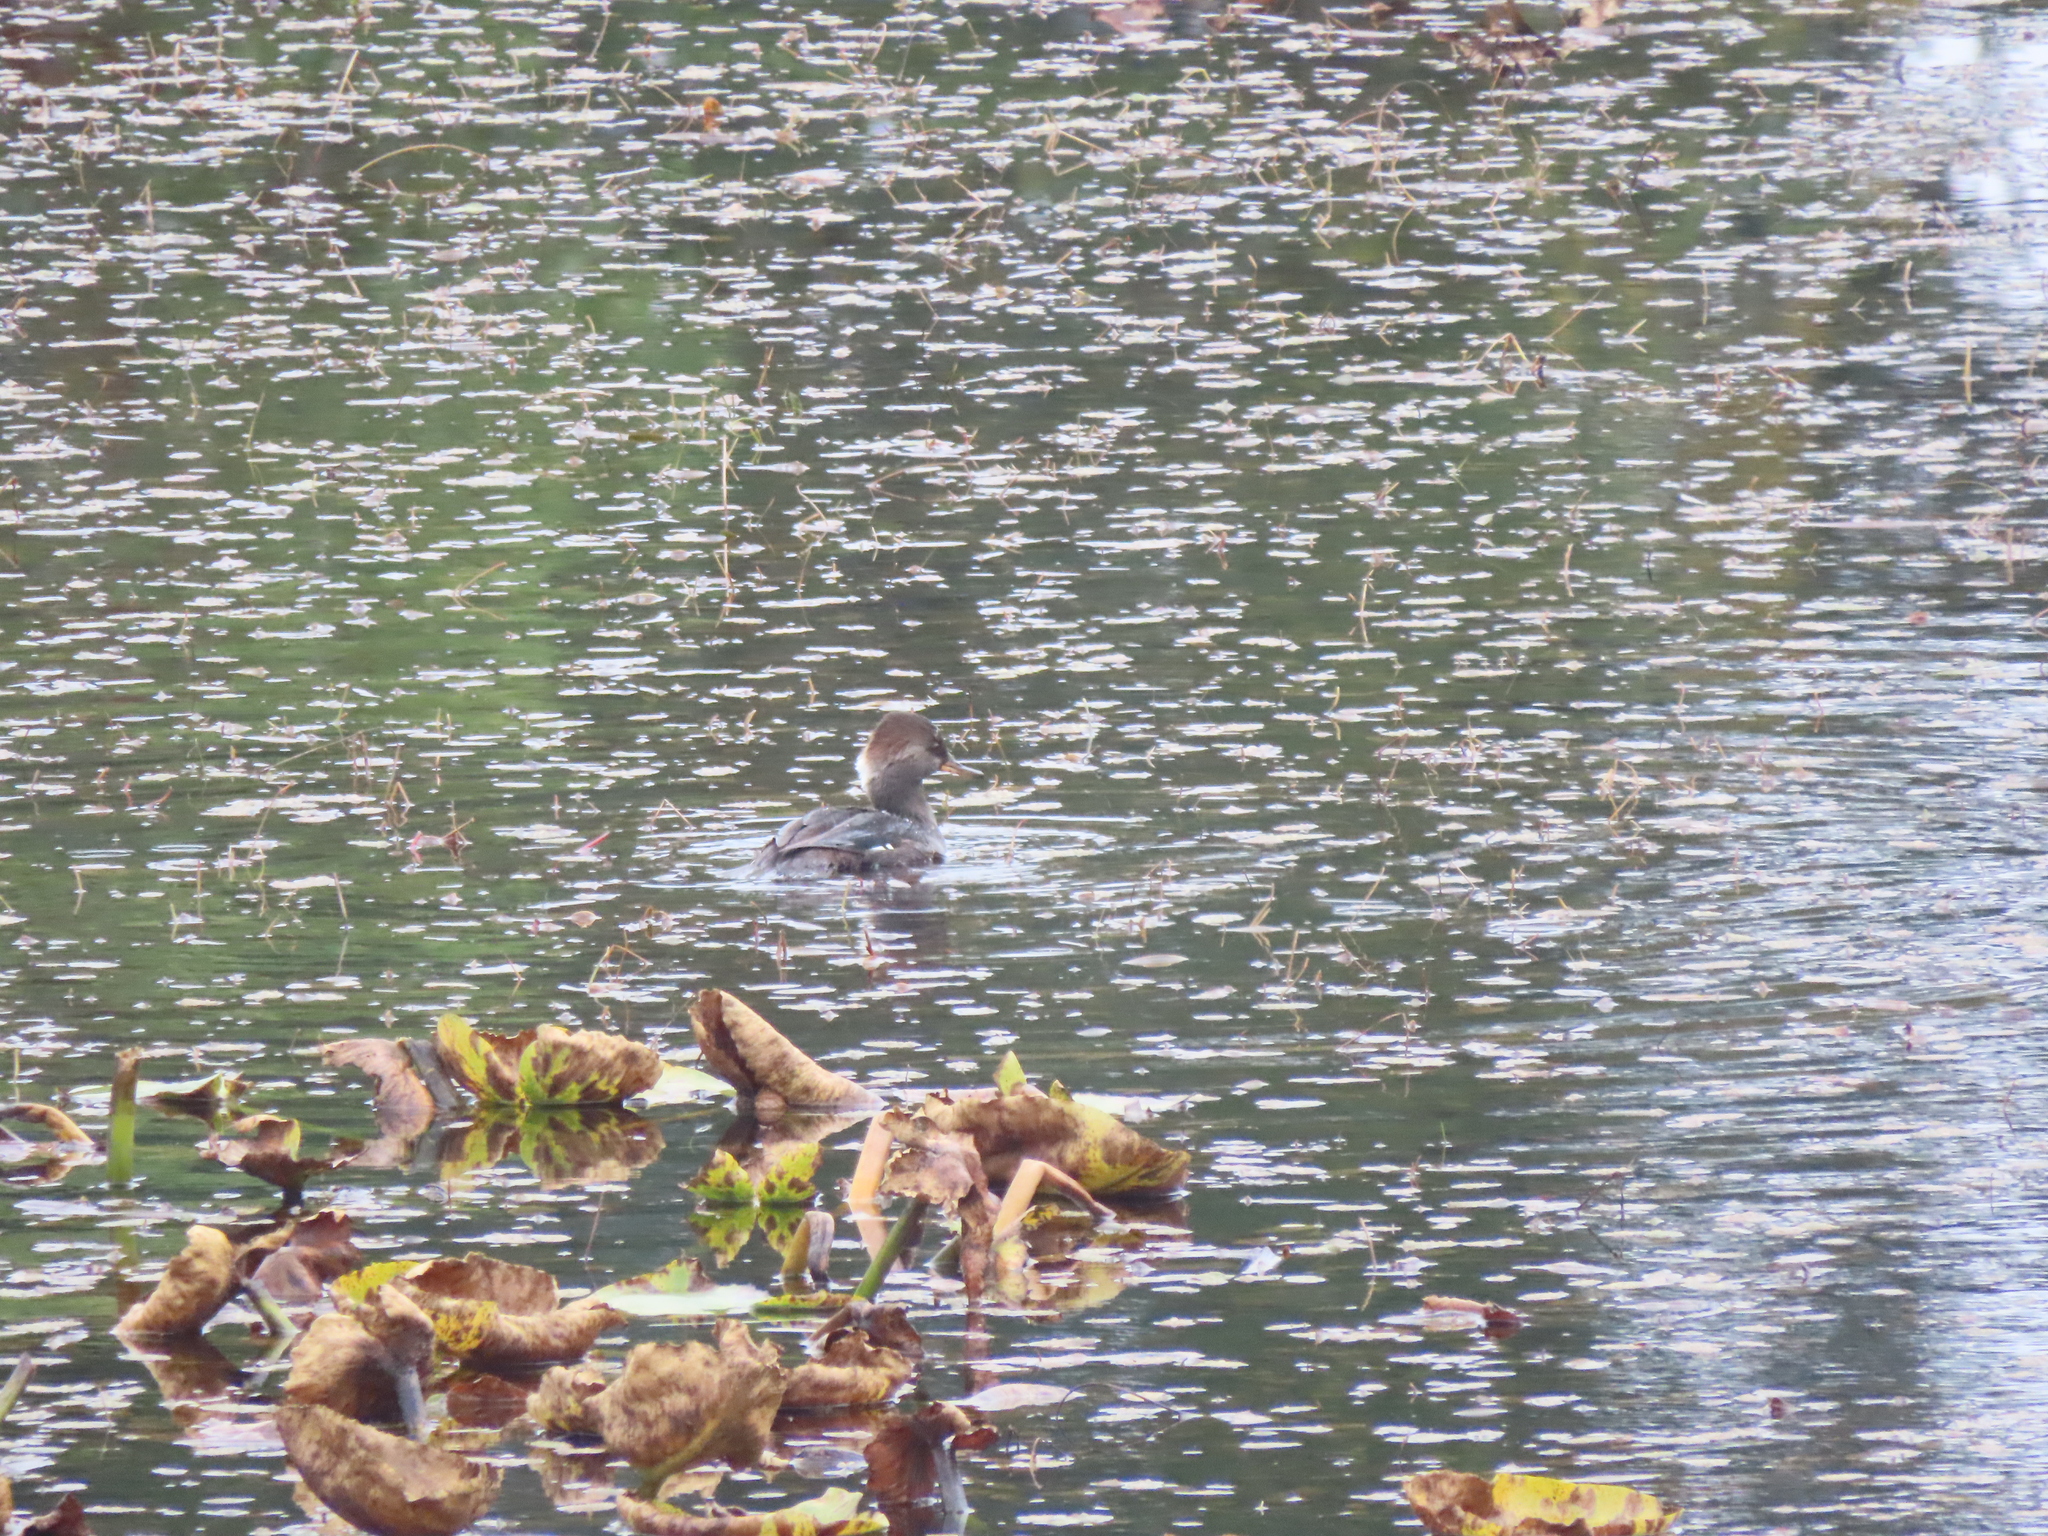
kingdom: Animalia
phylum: Chordata
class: Aves
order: Anseriformes
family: Anatidae
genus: Lophodytes
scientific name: Lophodytes cucullatus
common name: Hooded merganser
